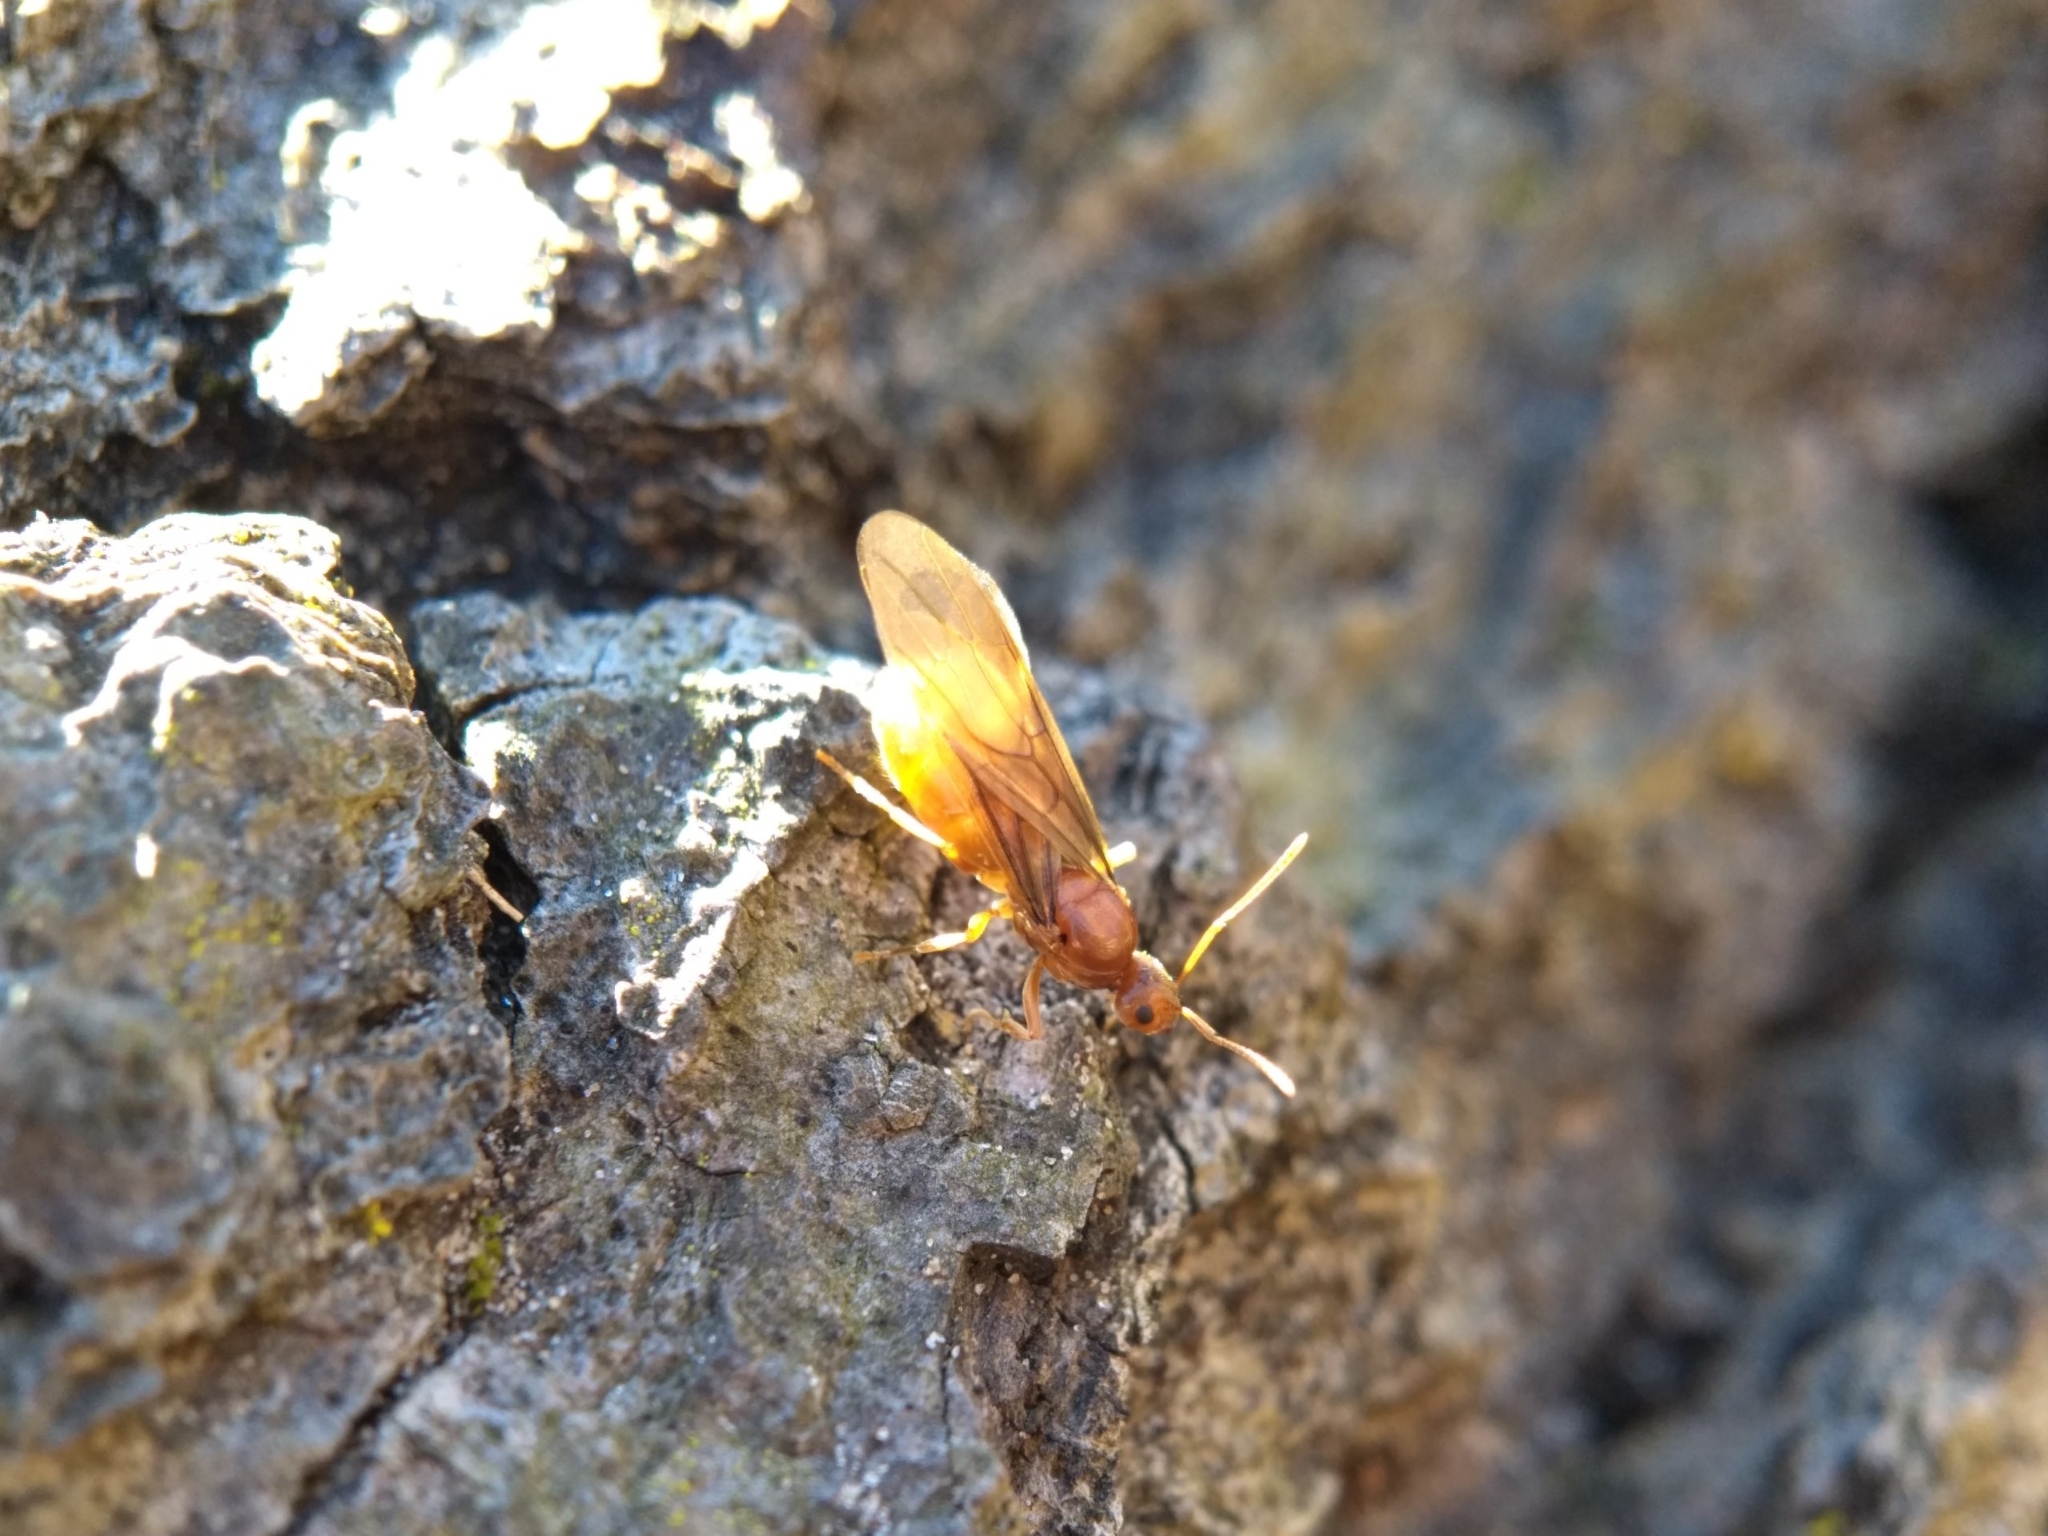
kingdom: Animalia
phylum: Arthropoda
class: Insecta
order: Hymenoptera
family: Formicidae
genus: Prenolepis
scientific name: Prenolepis imparis
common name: Small honey ant
